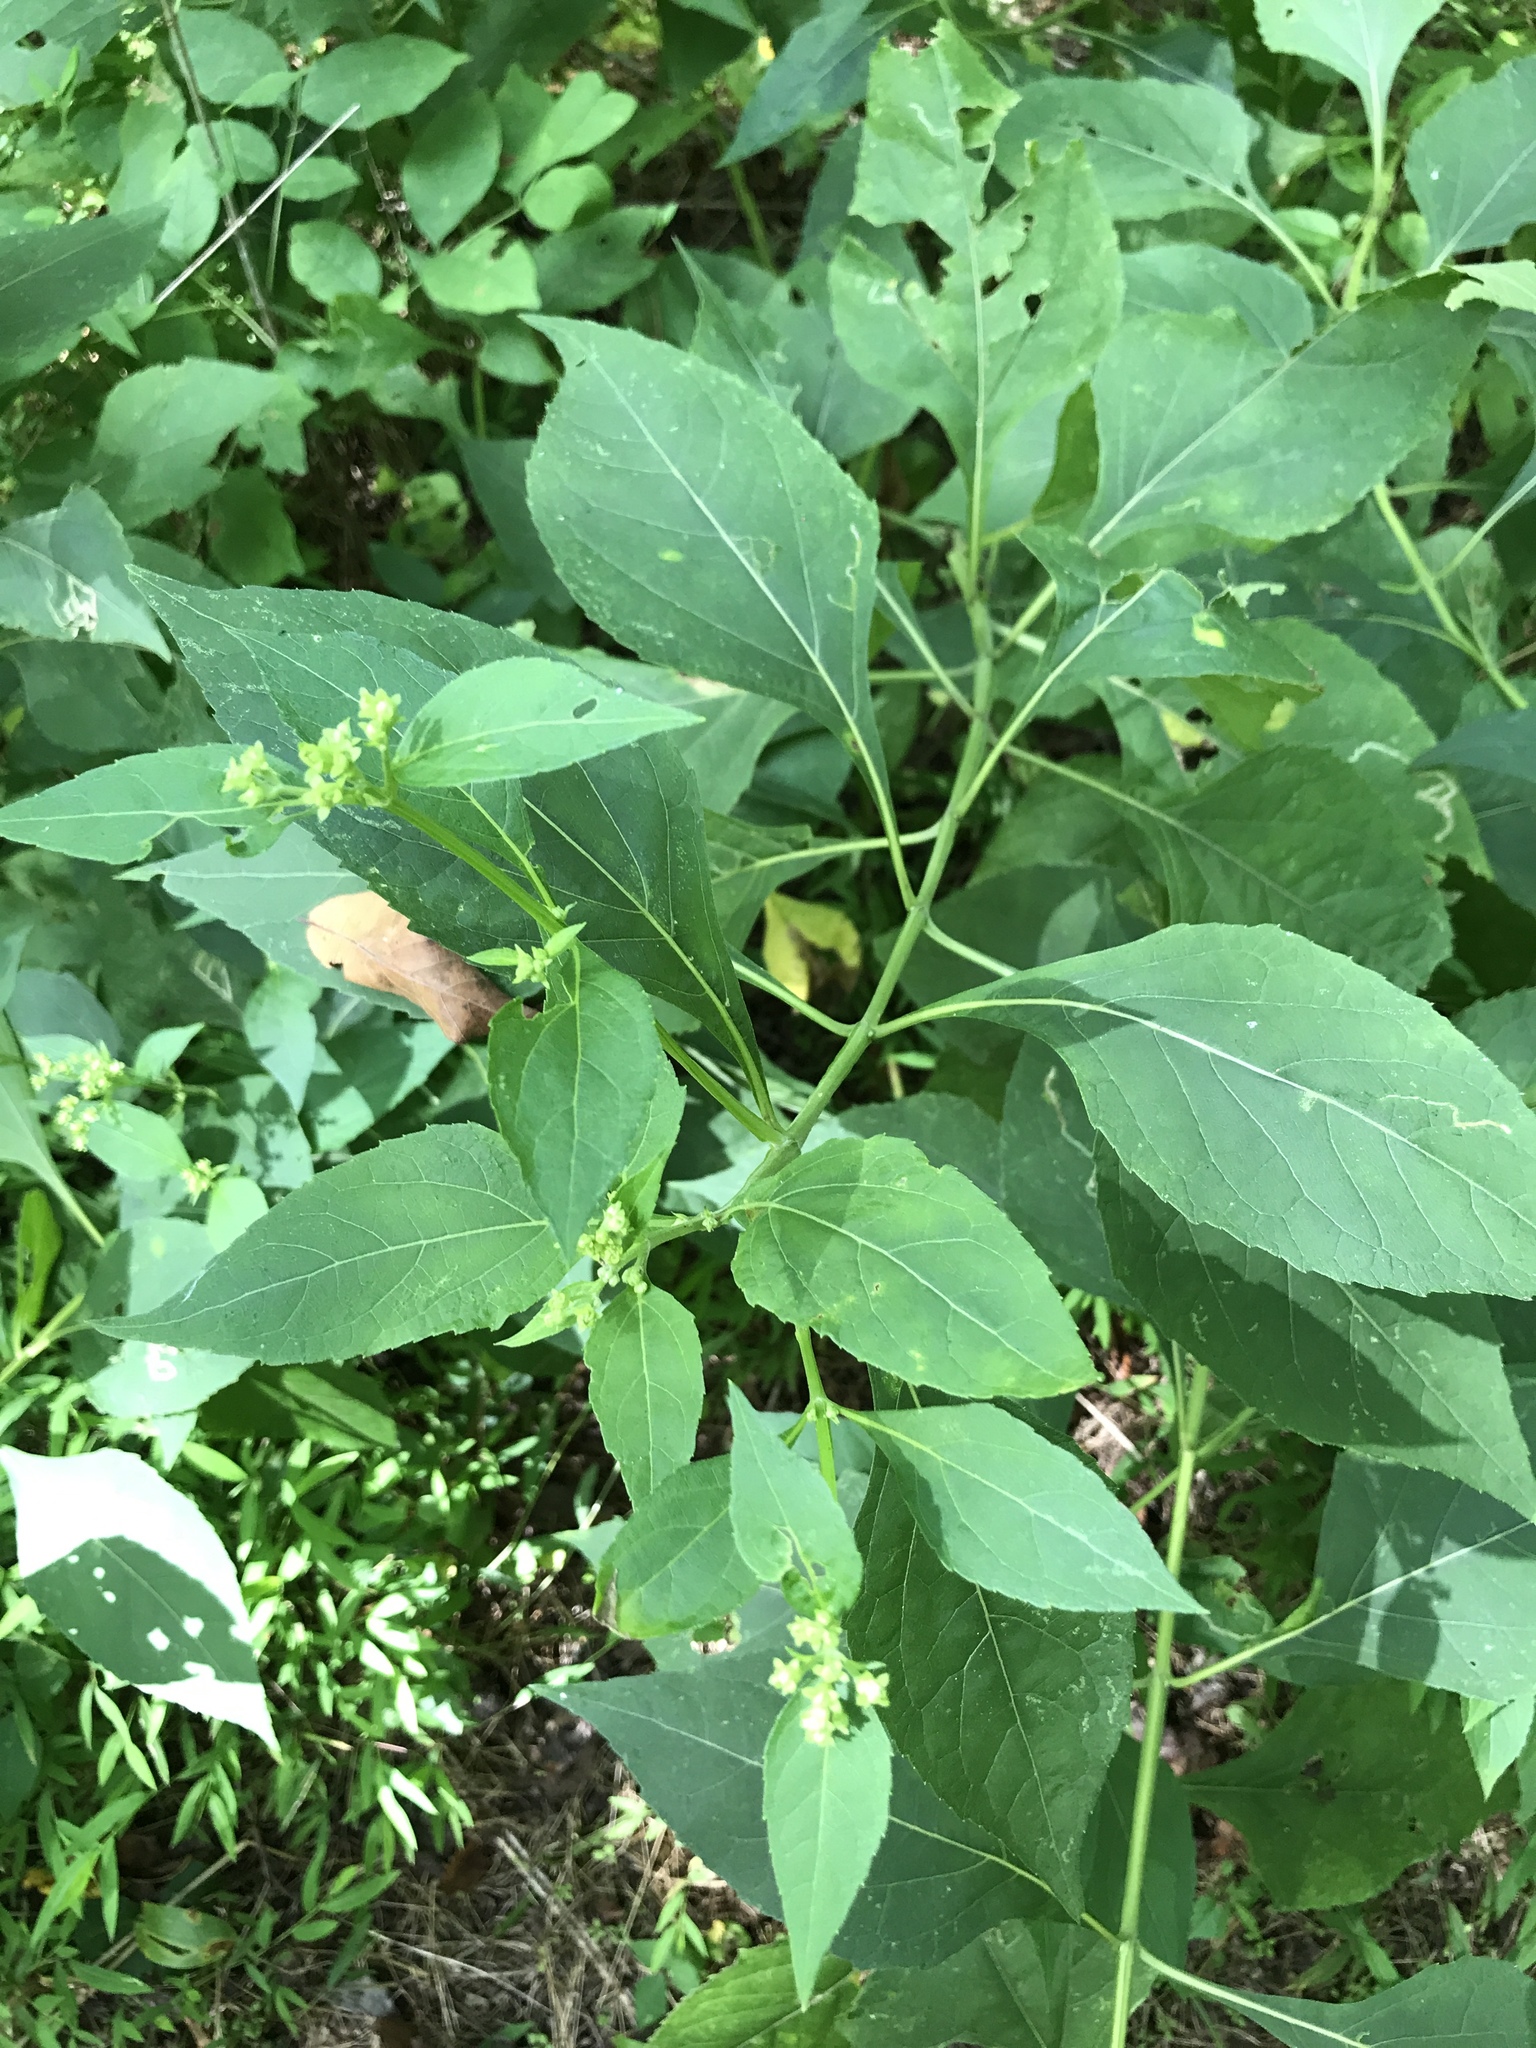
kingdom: Plantae
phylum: Tracheophyta
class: Magnoliopsida
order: Asterales
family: Asteraceae
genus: Verbesina
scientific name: Verbesina occidentalis
